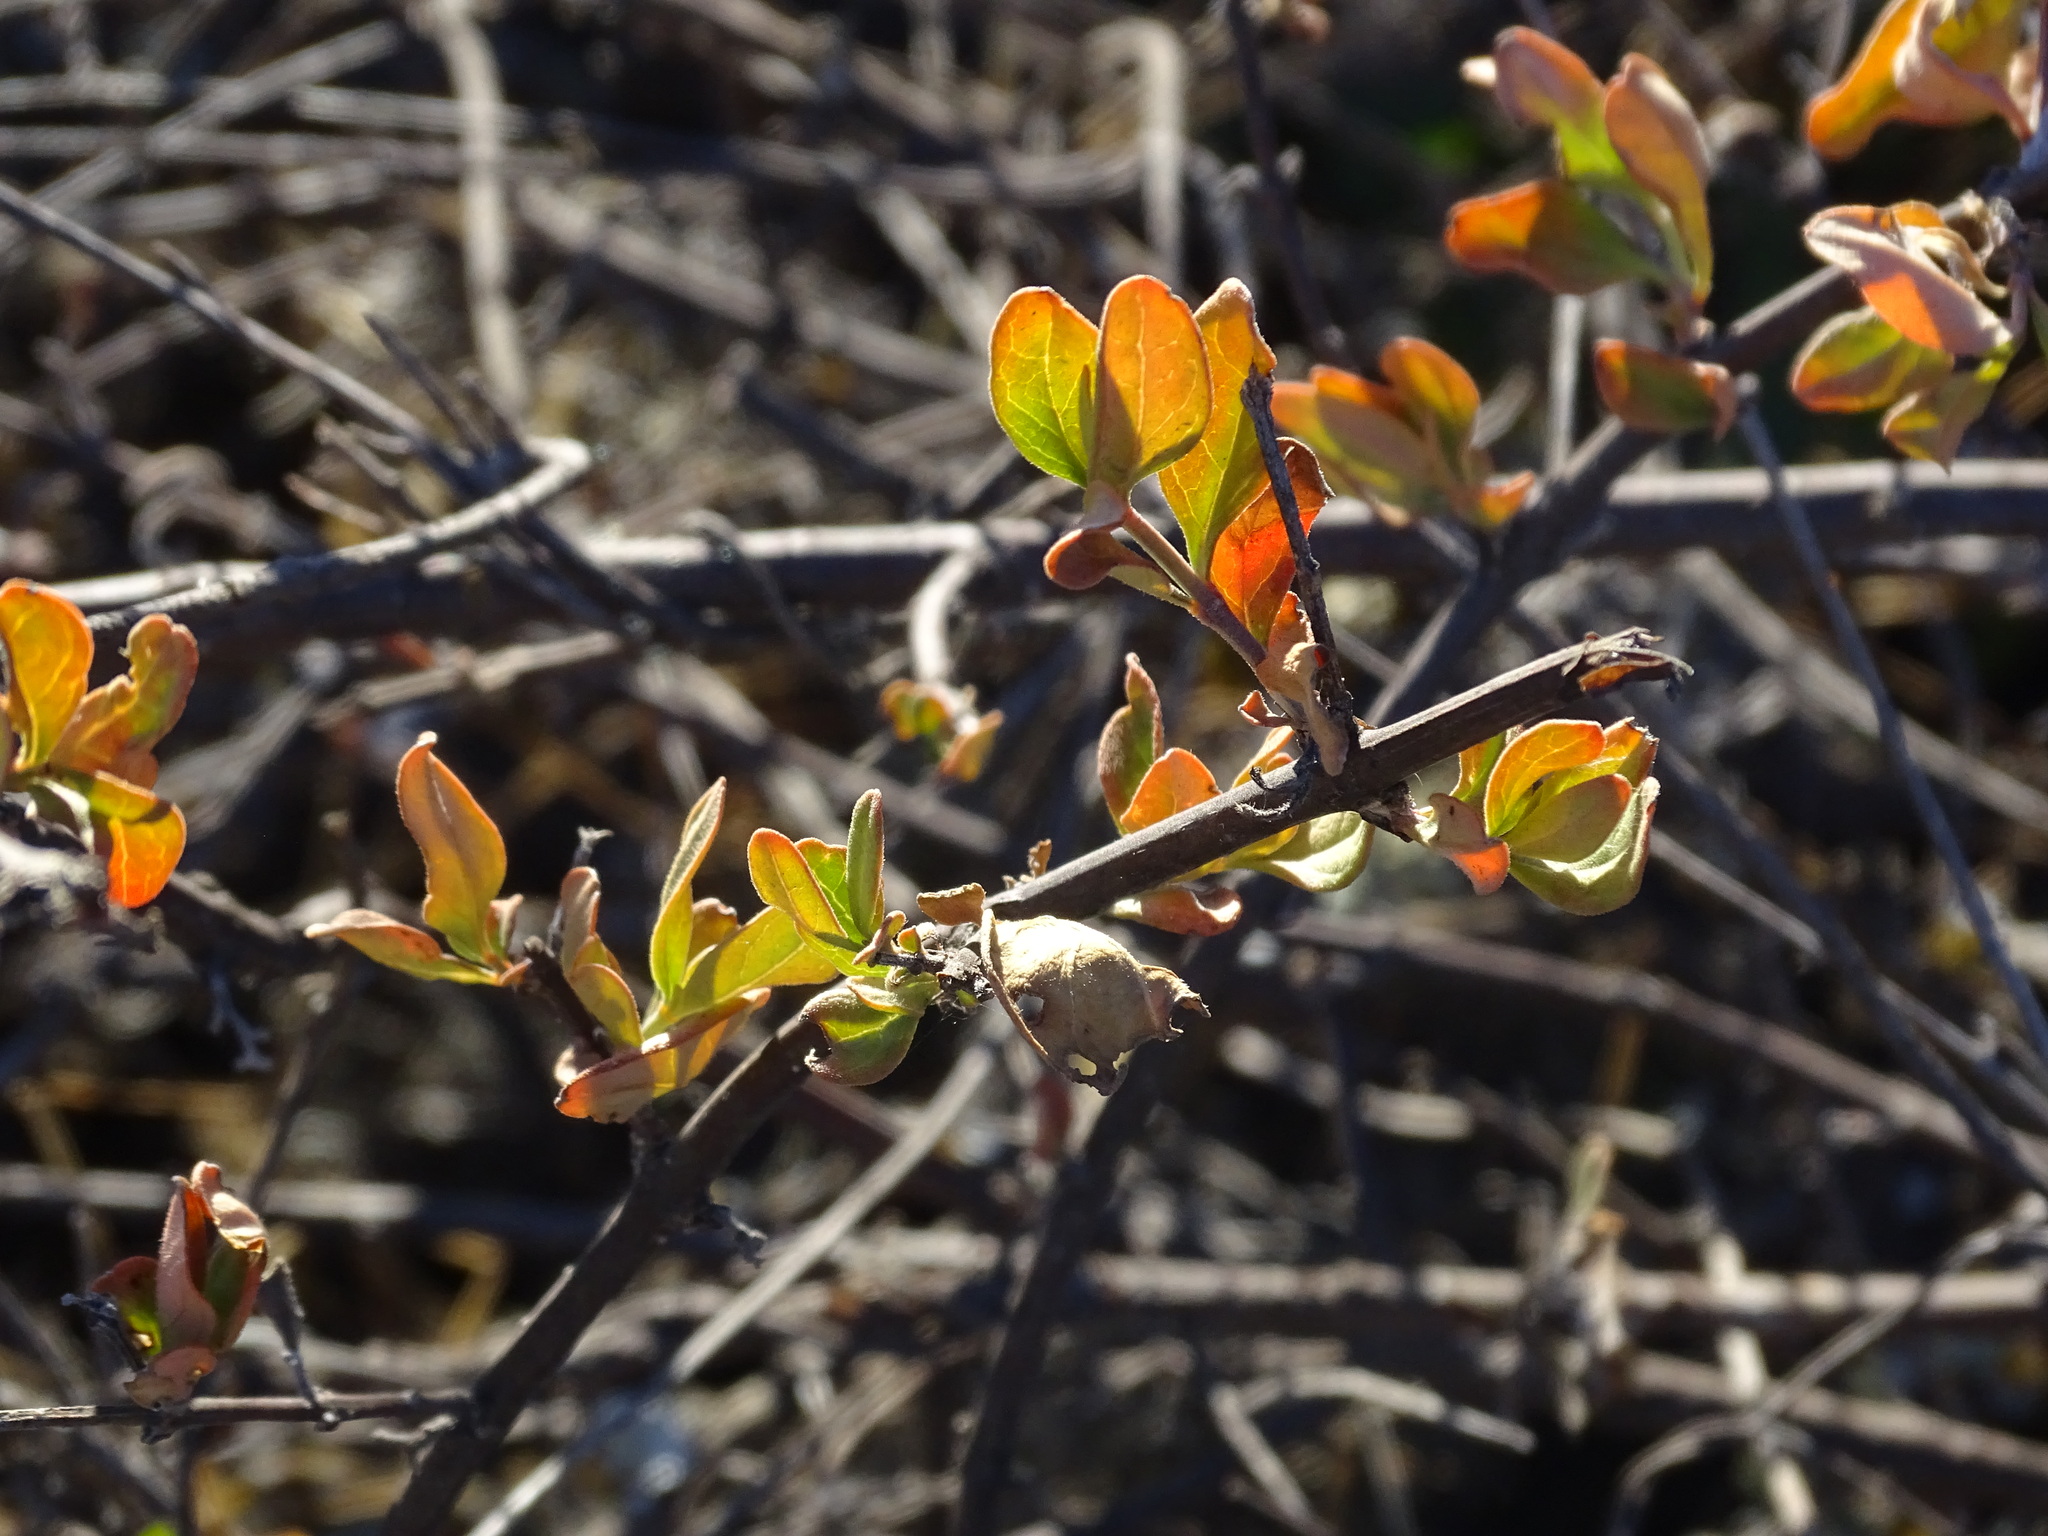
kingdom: Plantae
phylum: Tracheophyta
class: Magnoliopsida
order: Lamiales
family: Verbenaceae
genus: Citharexylum
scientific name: Citharexylum racemosum
